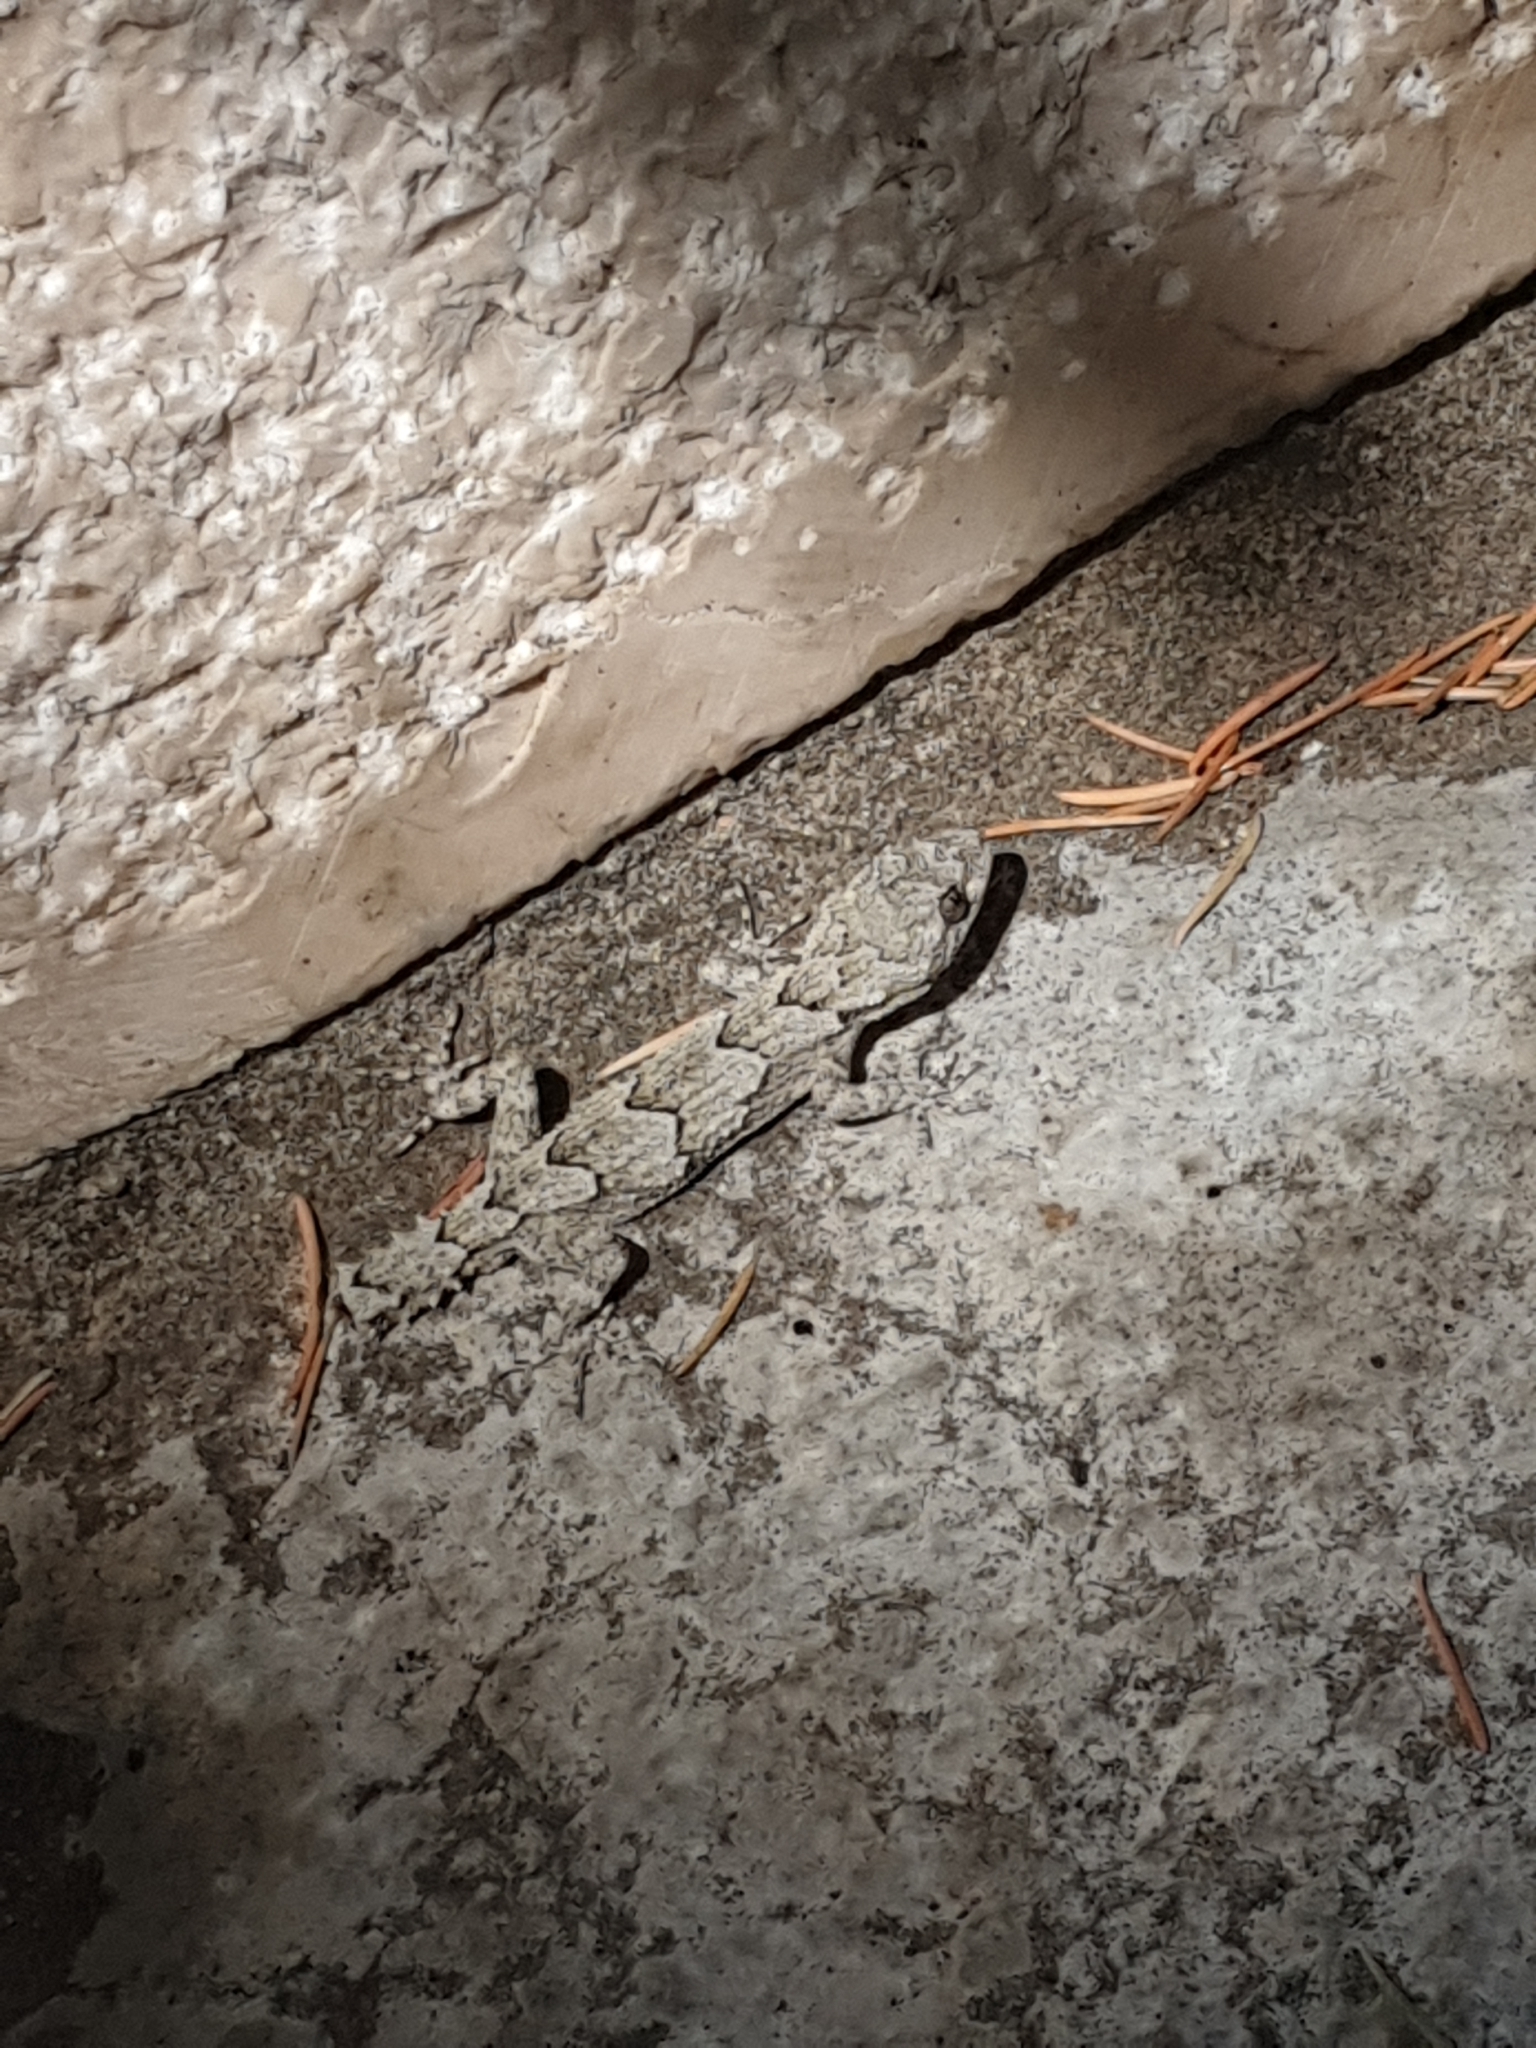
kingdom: Animalia
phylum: Chordata
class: Squamata
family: Gekkonidae
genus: Mediodactylus
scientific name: Mediodactylus orientalis
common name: Mediterranean thin-toed gecko
